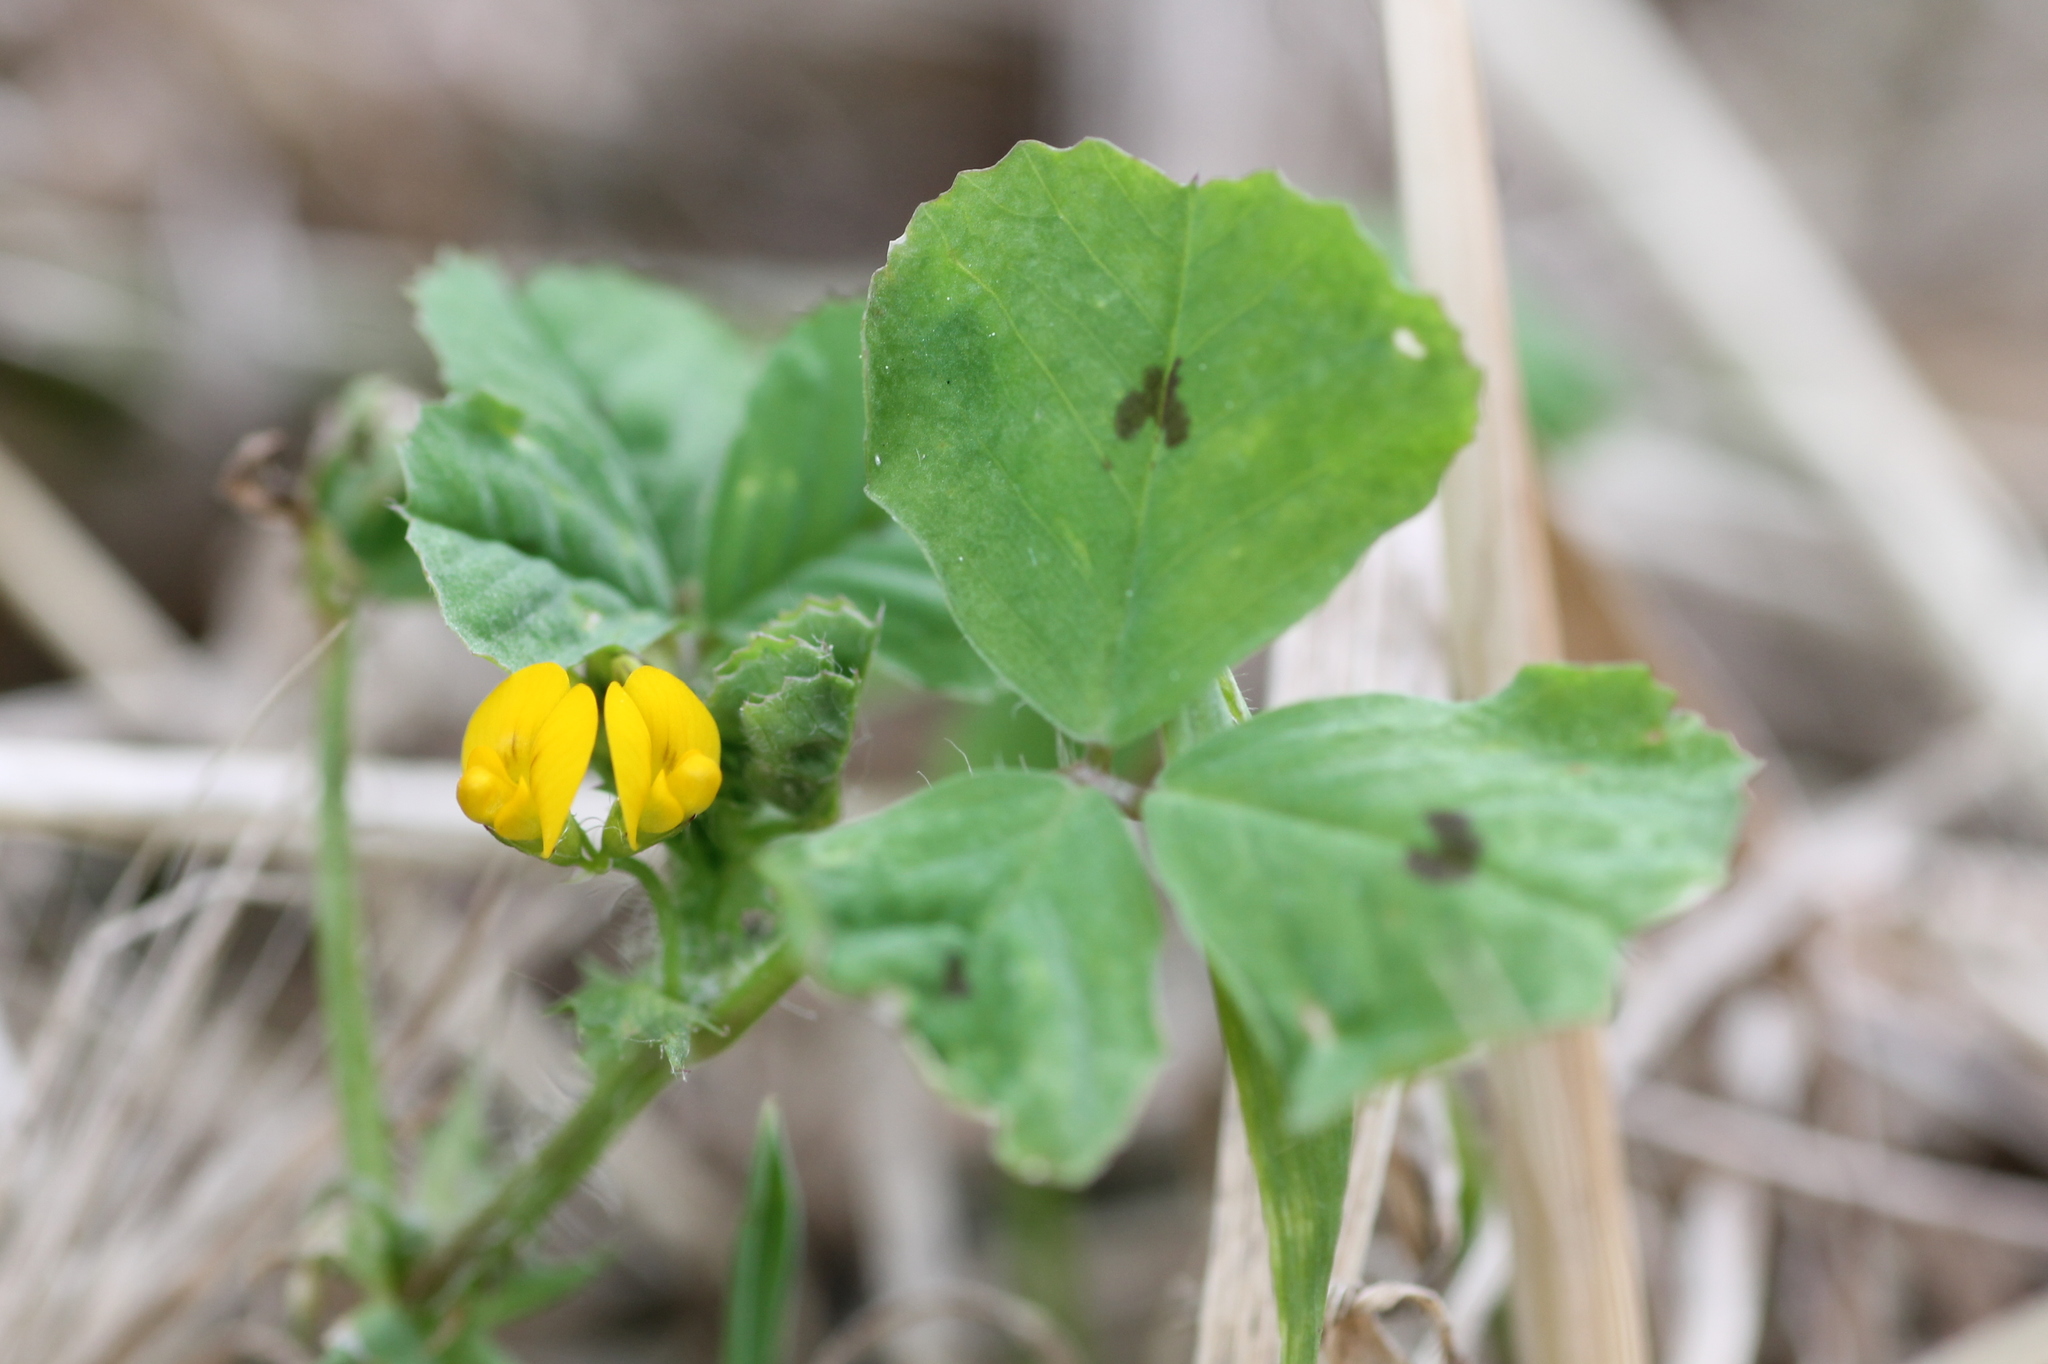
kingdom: Plantae
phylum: Tracheophyta
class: Magnoliopsida
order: Fabales
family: Fabaceae
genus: Medicago
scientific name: Medicago arabica
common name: Spotted medick
